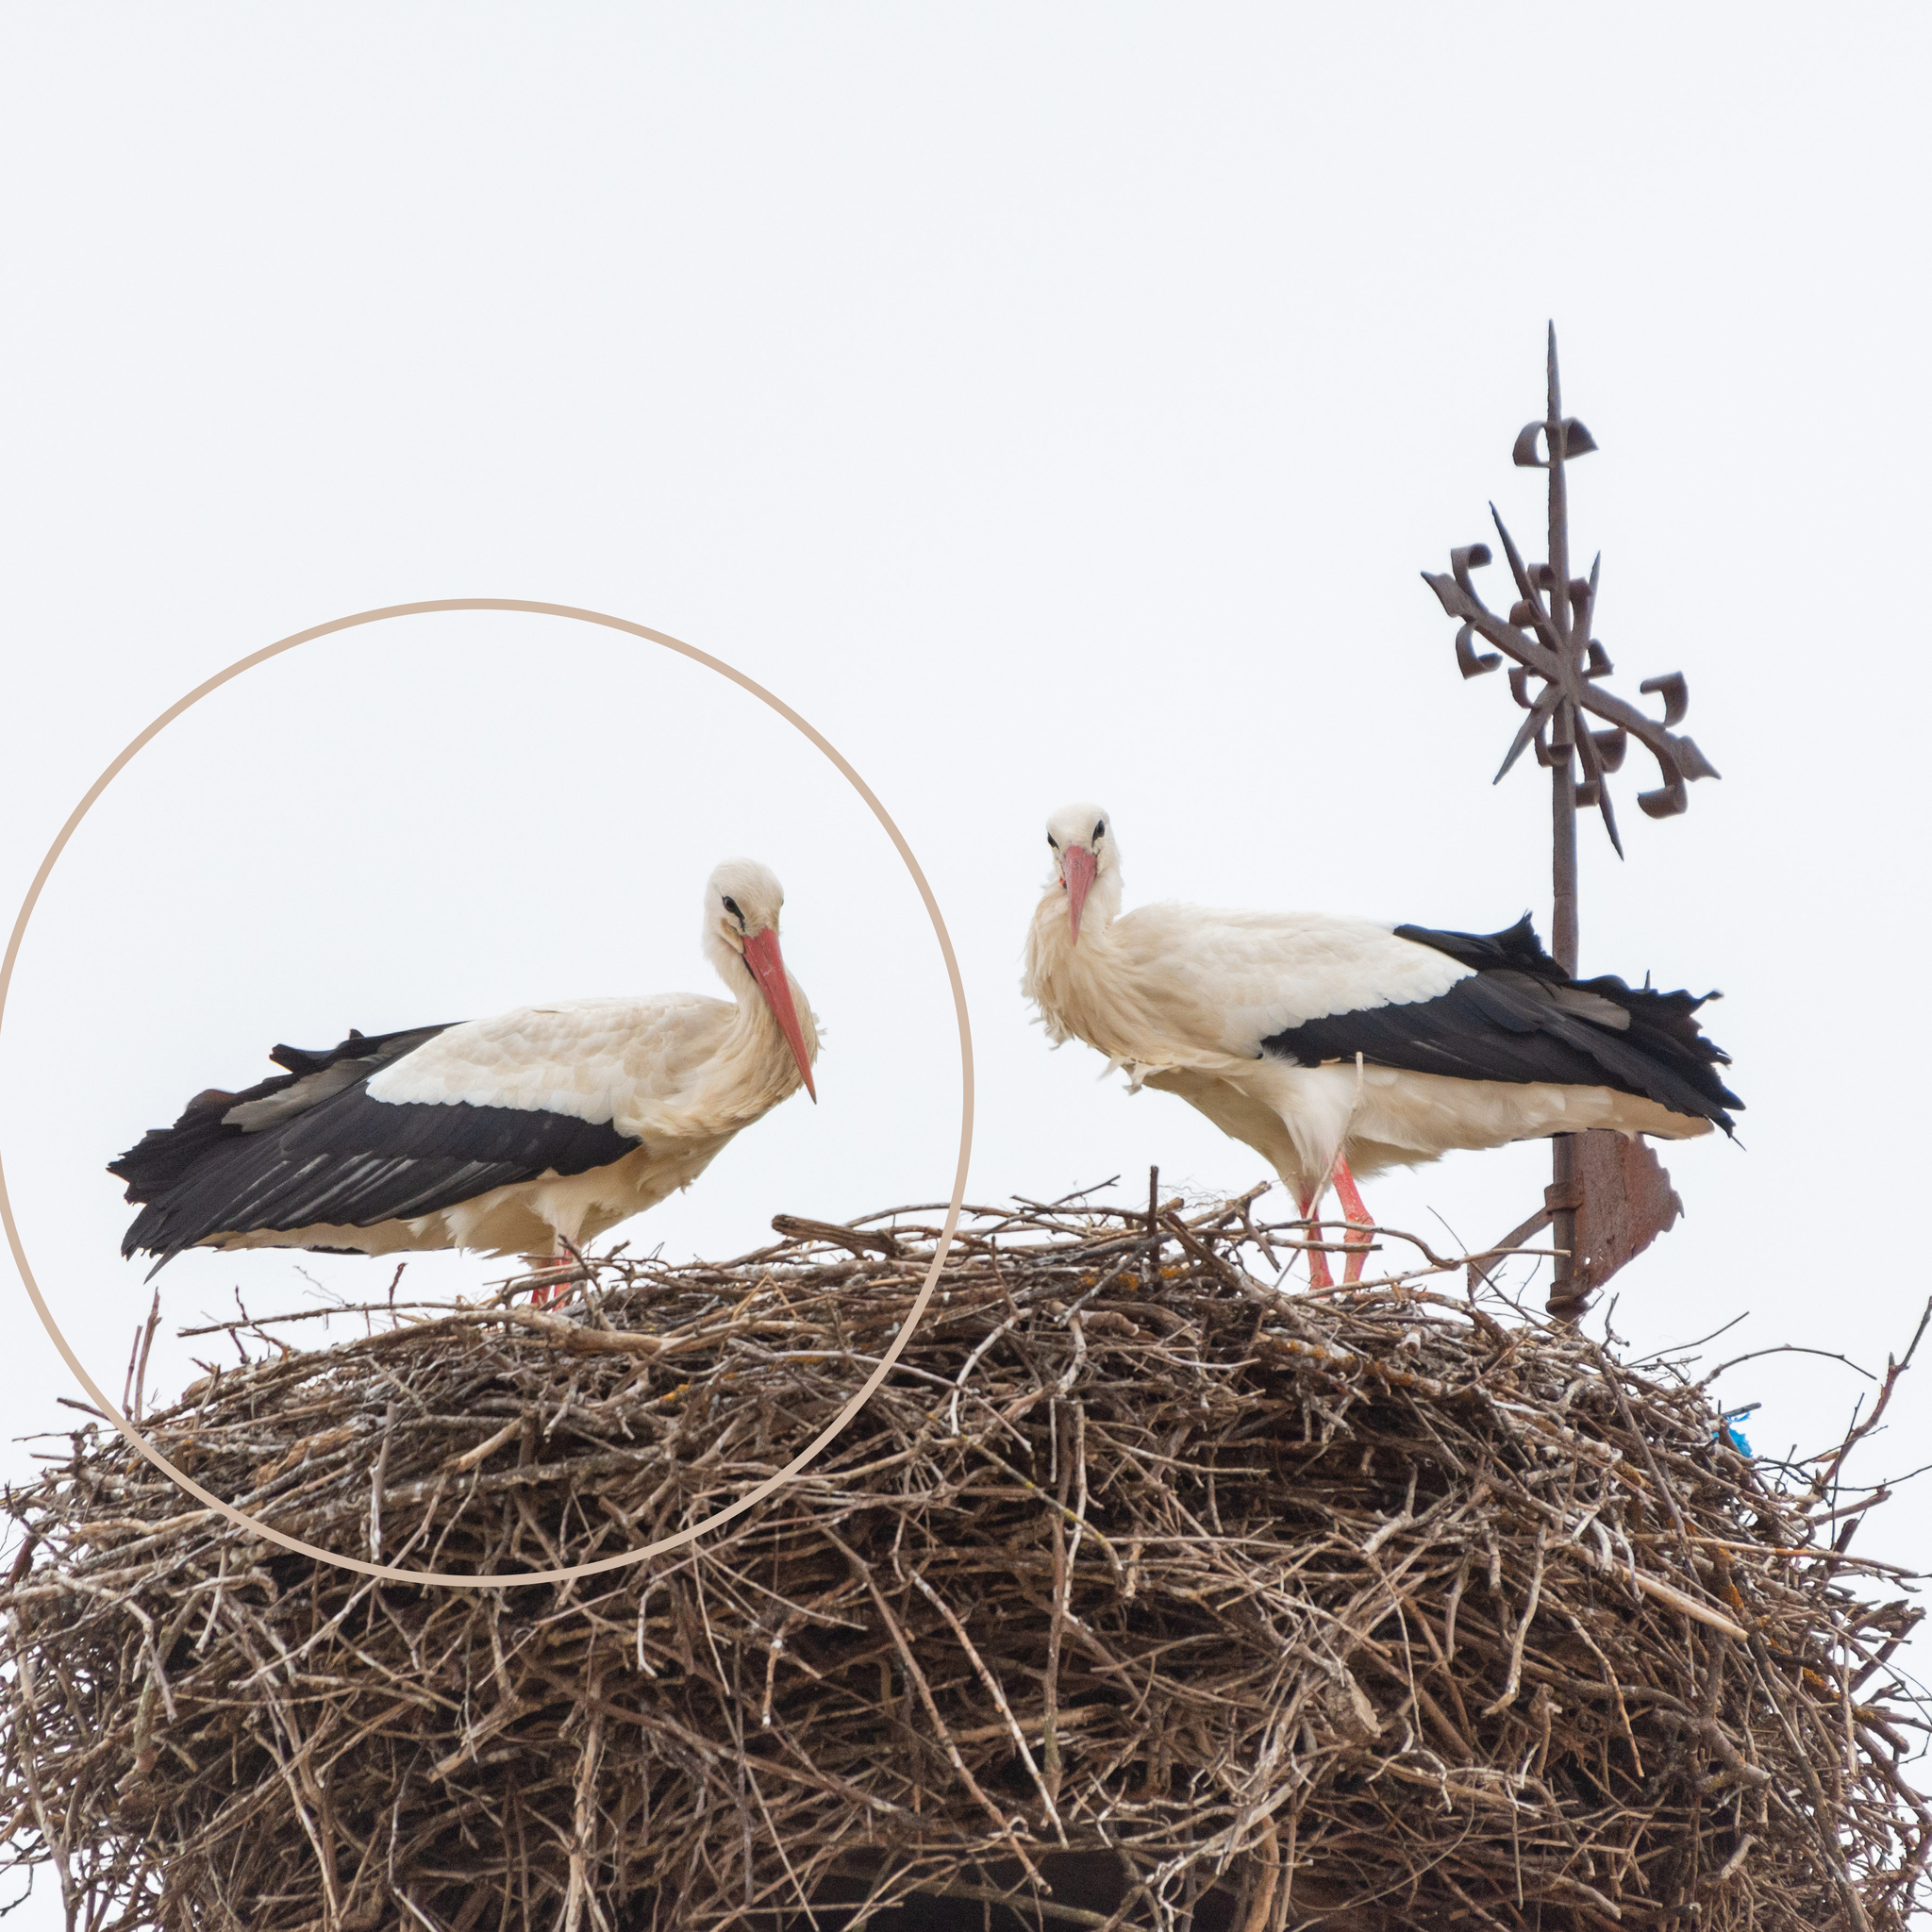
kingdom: Animalia
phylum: Chordata
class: Aves
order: Ciconiiformes
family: Ciconiidae
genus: Ciconia
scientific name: Ciconia ciconia
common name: White stork
